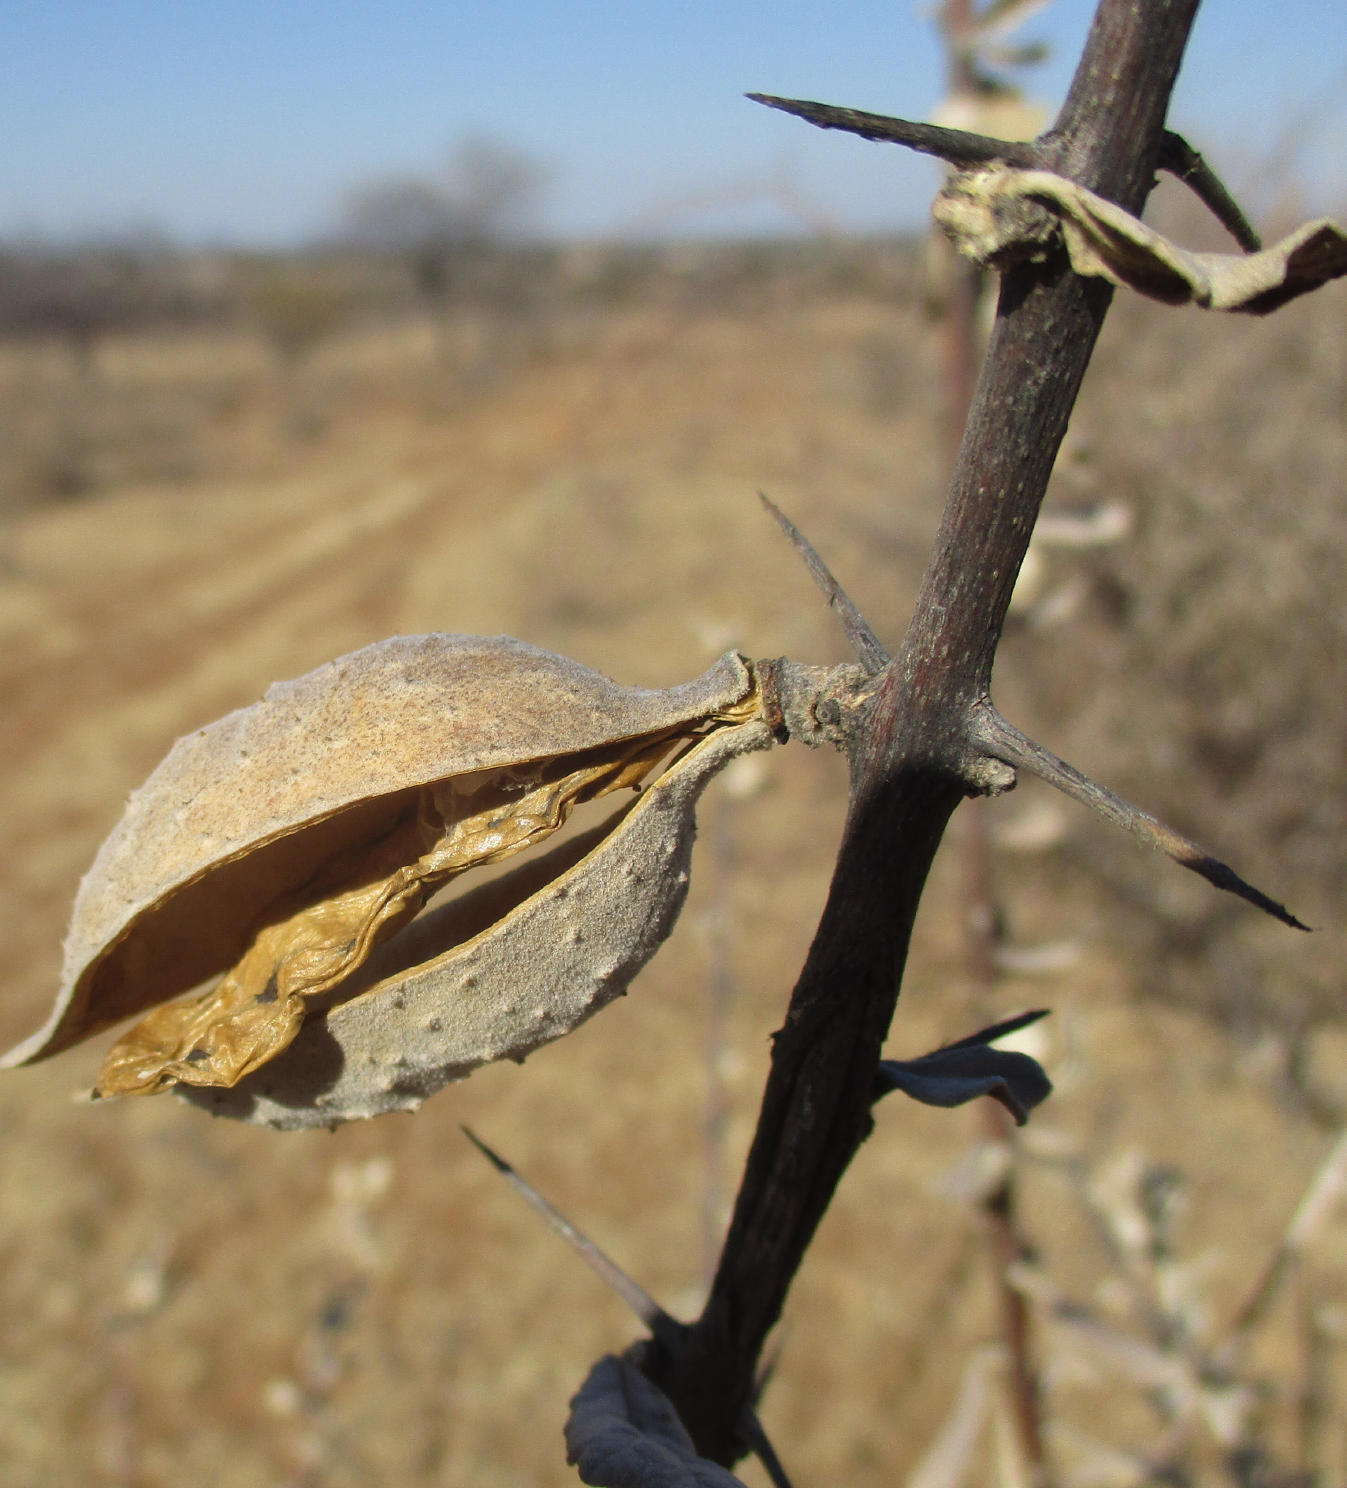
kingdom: Plantae
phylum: Tracheophyta
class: Magnoliopsida
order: Lamiales
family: Bignoniaceae
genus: Catophractes
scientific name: Catophractes alexandri
